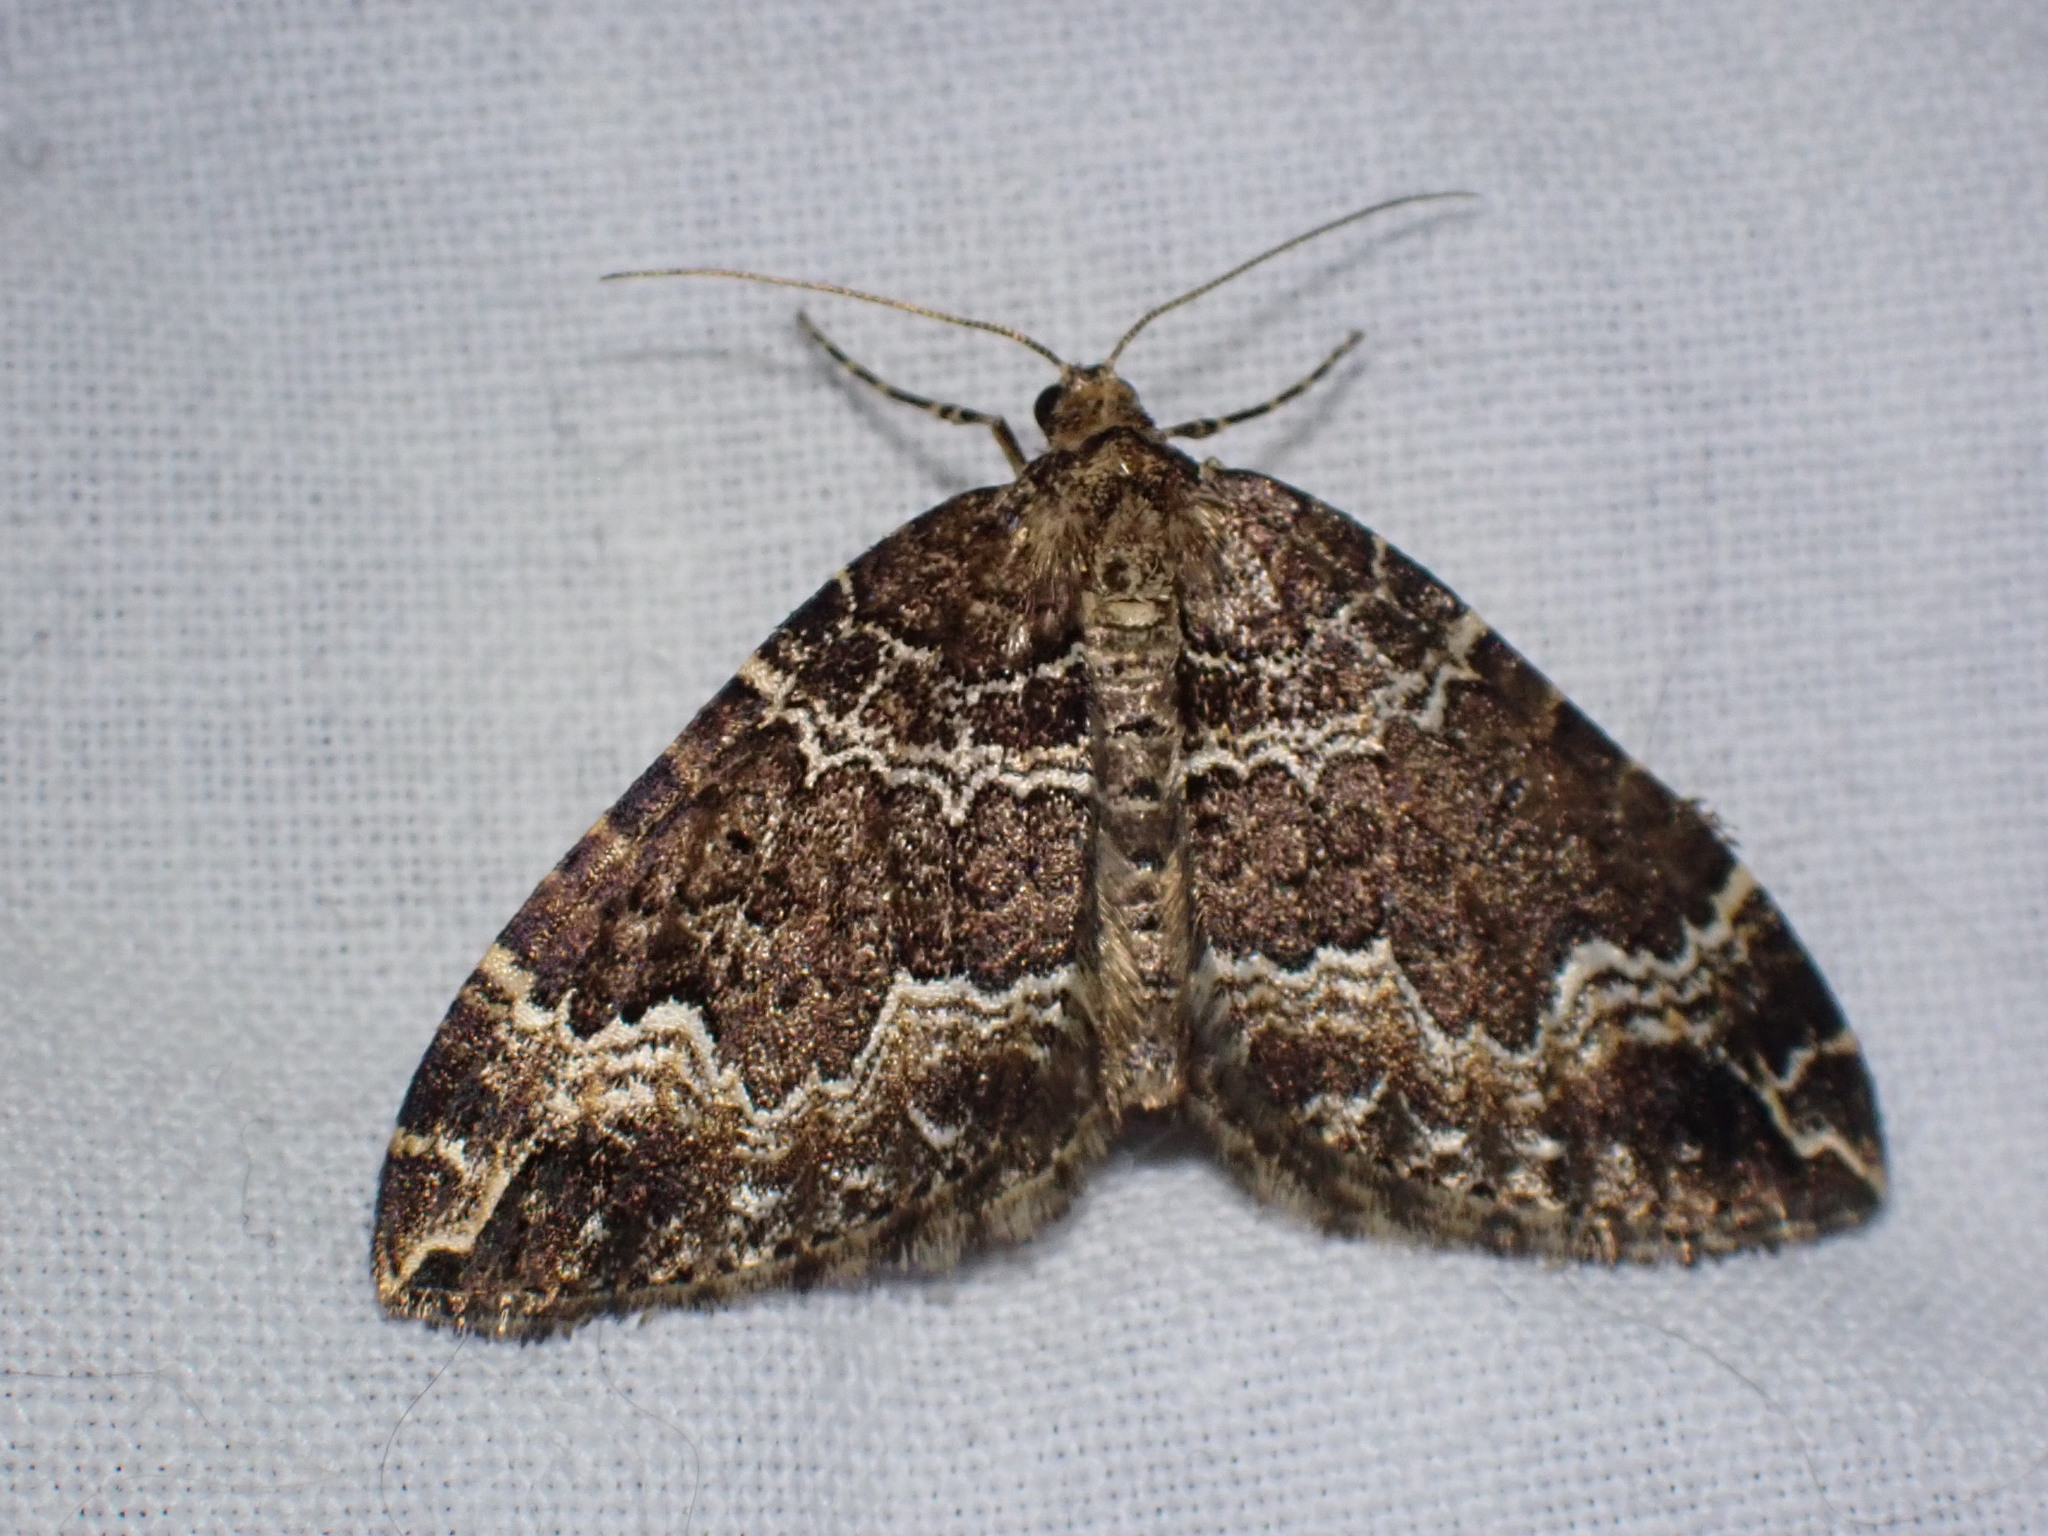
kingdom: Animalia
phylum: Arthropoda
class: Insecta
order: Lepidoptera
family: Geometridae
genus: Lampropteryx
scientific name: Lampropteryx suffumata
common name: Water carpet
